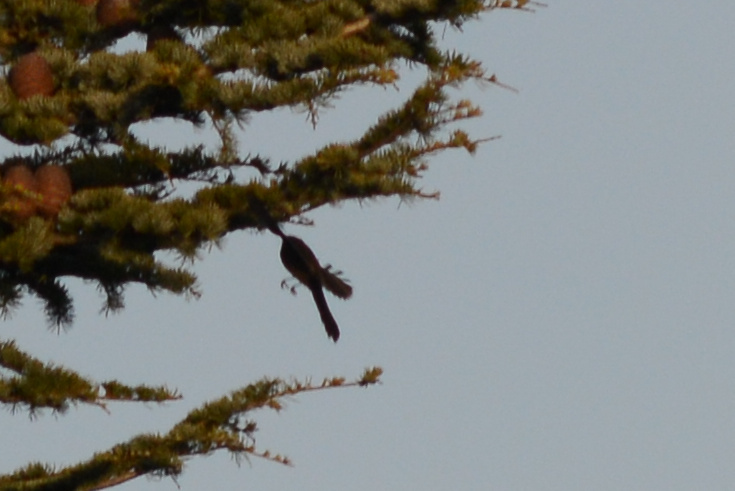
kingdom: Animalia
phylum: Chordata
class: Aves
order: Passeriformes
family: Rhipiduridae
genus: Rhipidura
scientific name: Rhipidura fuliginosa
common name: New zealand fantail
